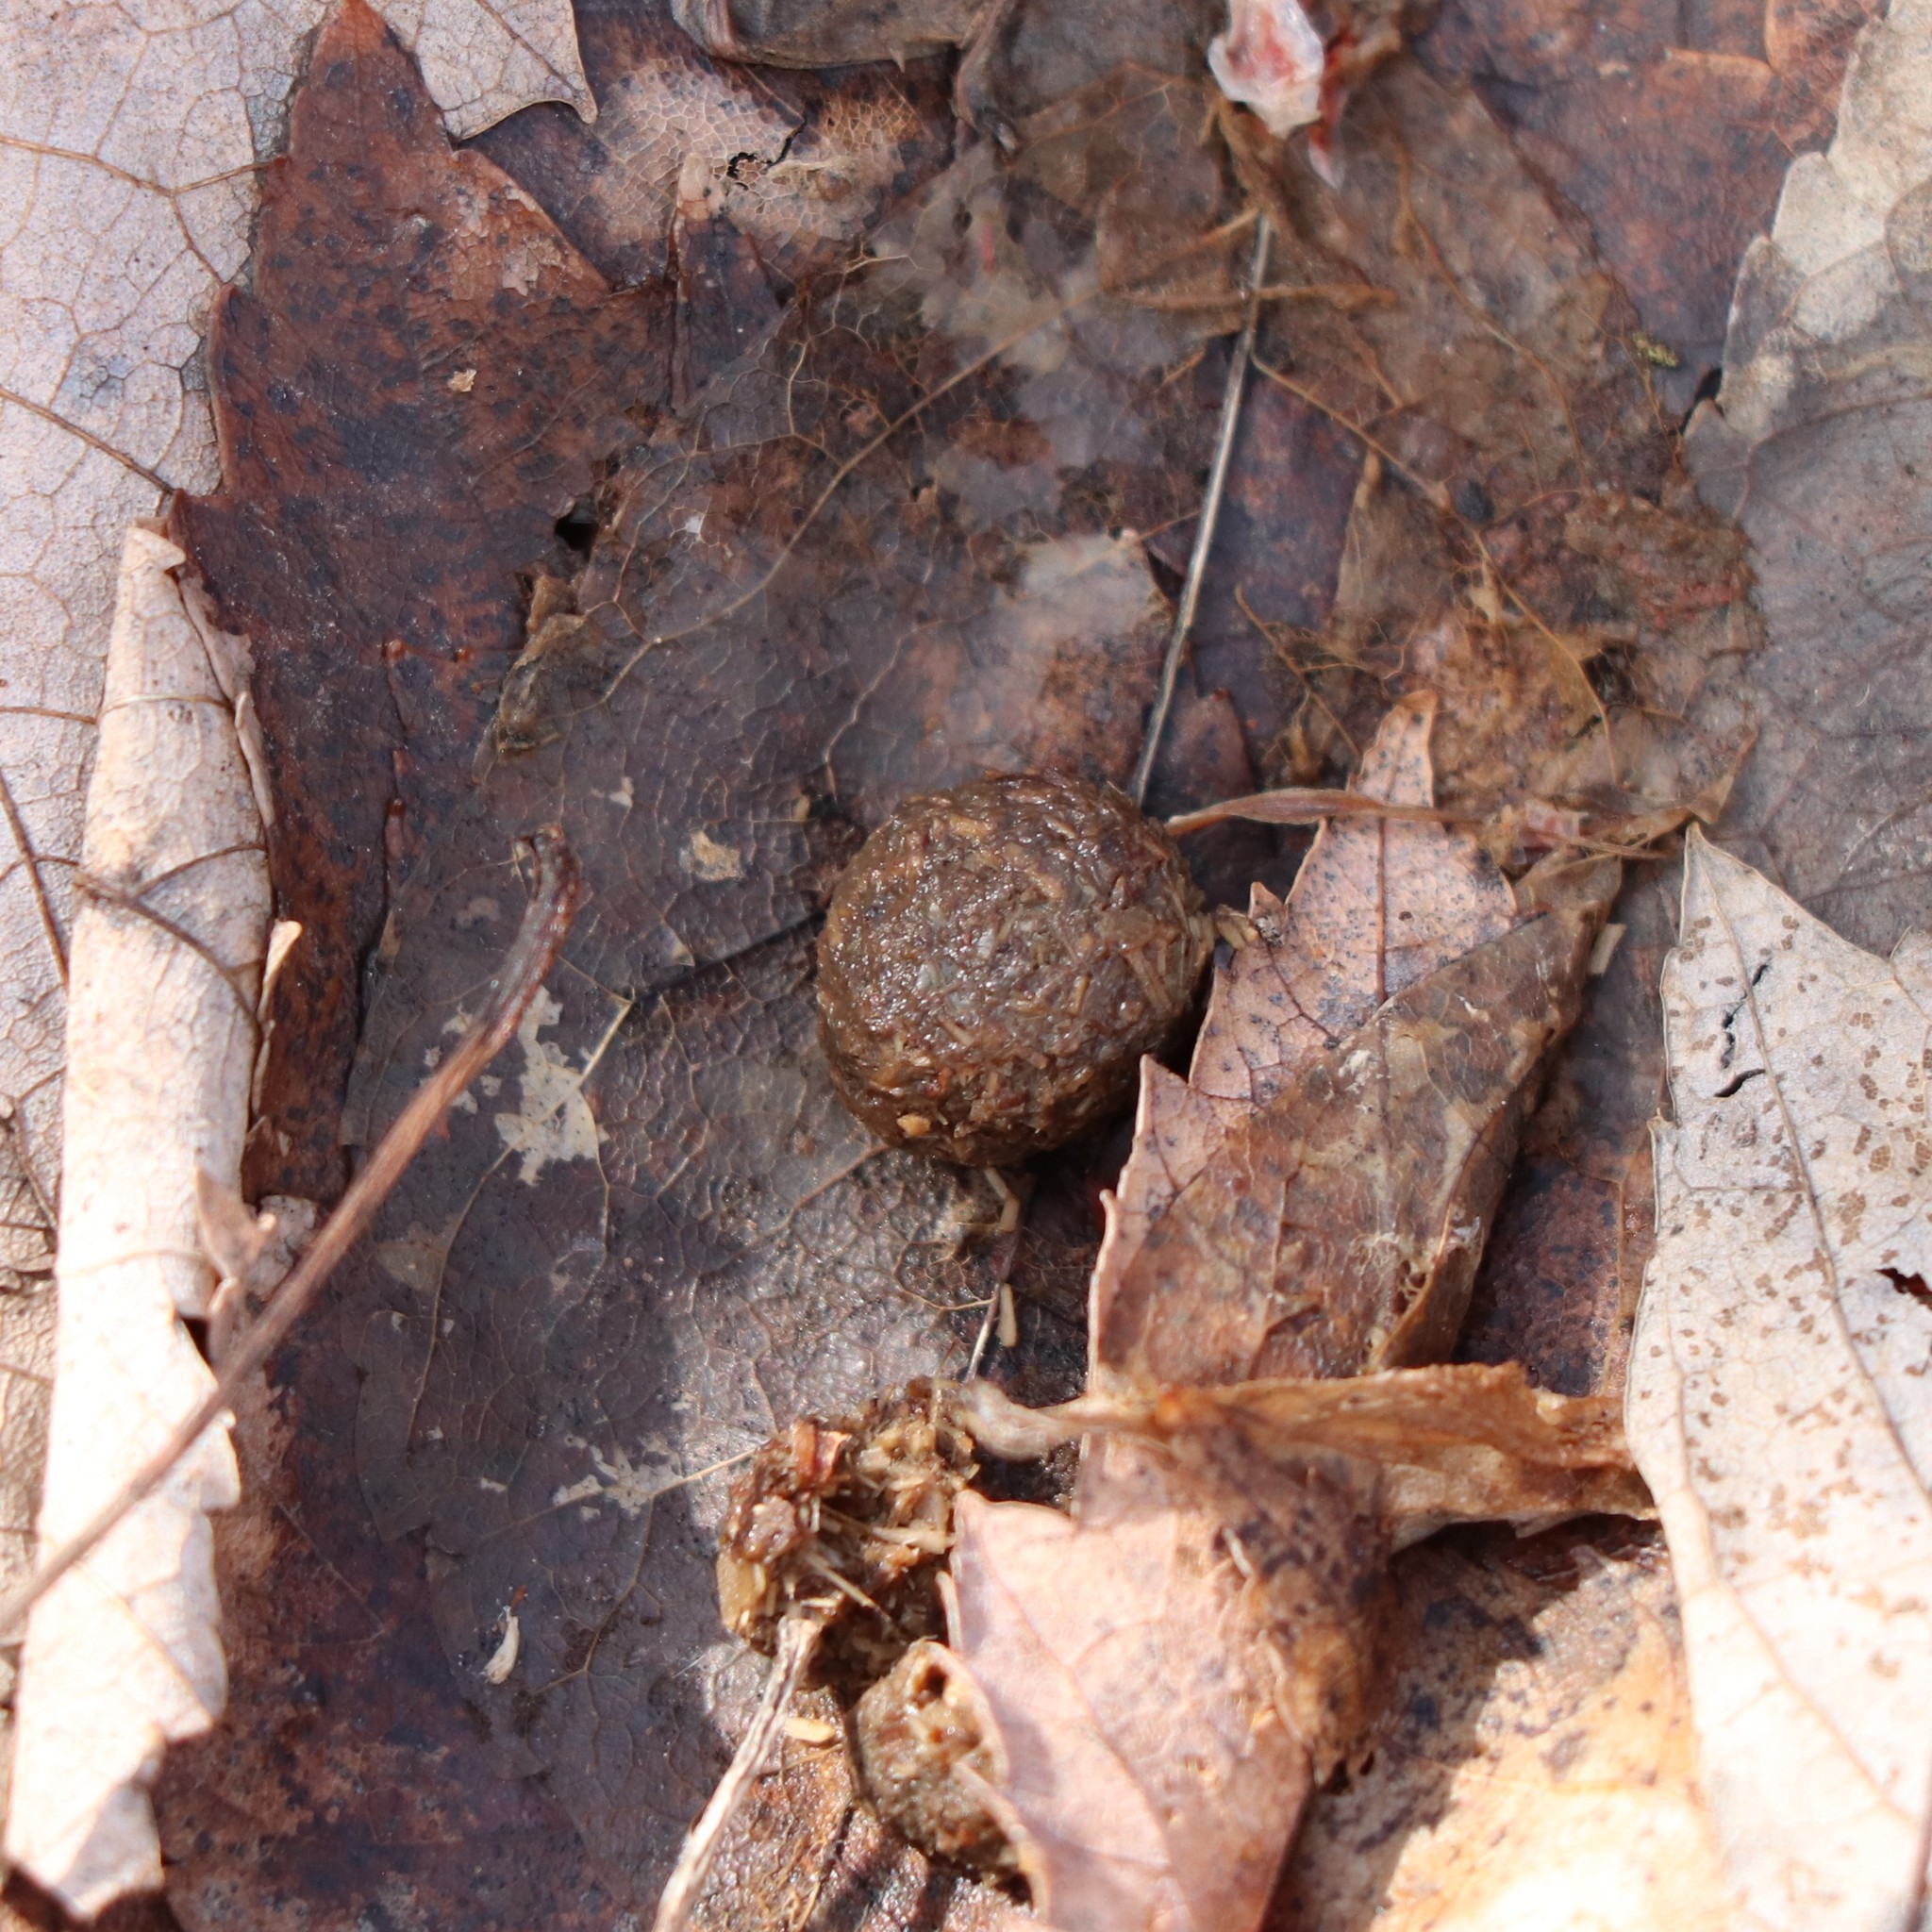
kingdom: Animalia
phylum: Chordata
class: Mammalia
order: Lagomorpha
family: Leporidae
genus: Sylvilagus
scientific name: Sylvilagus floridanus
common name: Eastern cottontail
